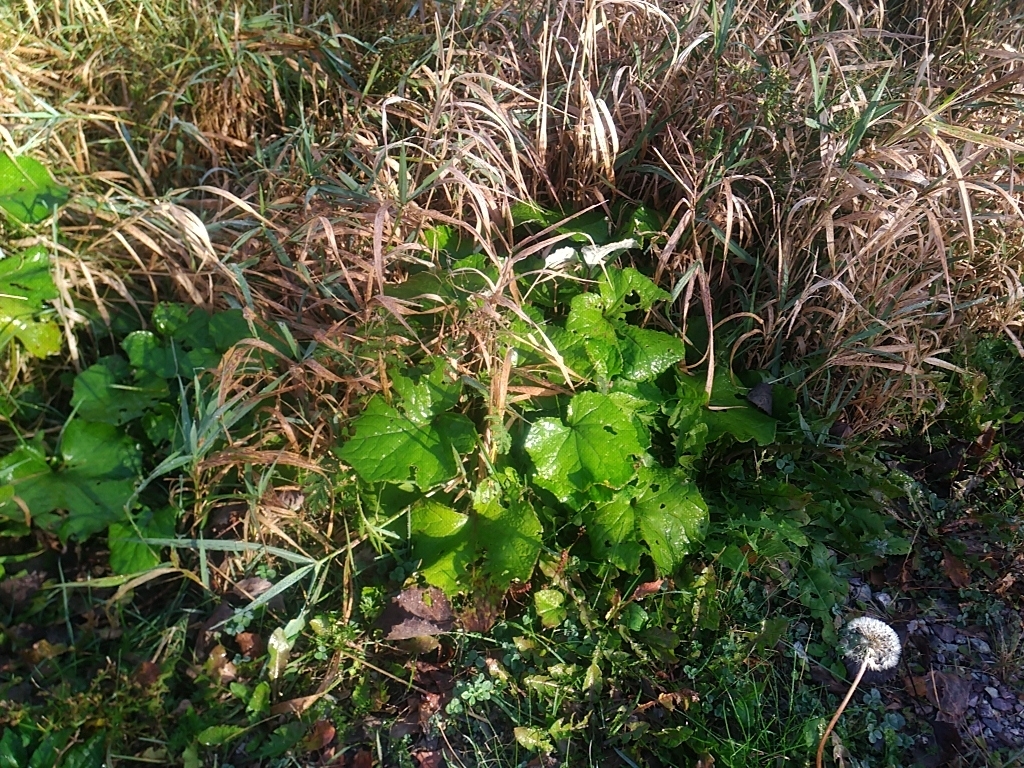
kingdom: Plantae
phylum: Tracheophyta
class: Magnoliopsida
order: Asterales
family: Asteraceae
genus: Tussilago
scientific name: Tussilago farfara
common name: Coltsfoot
